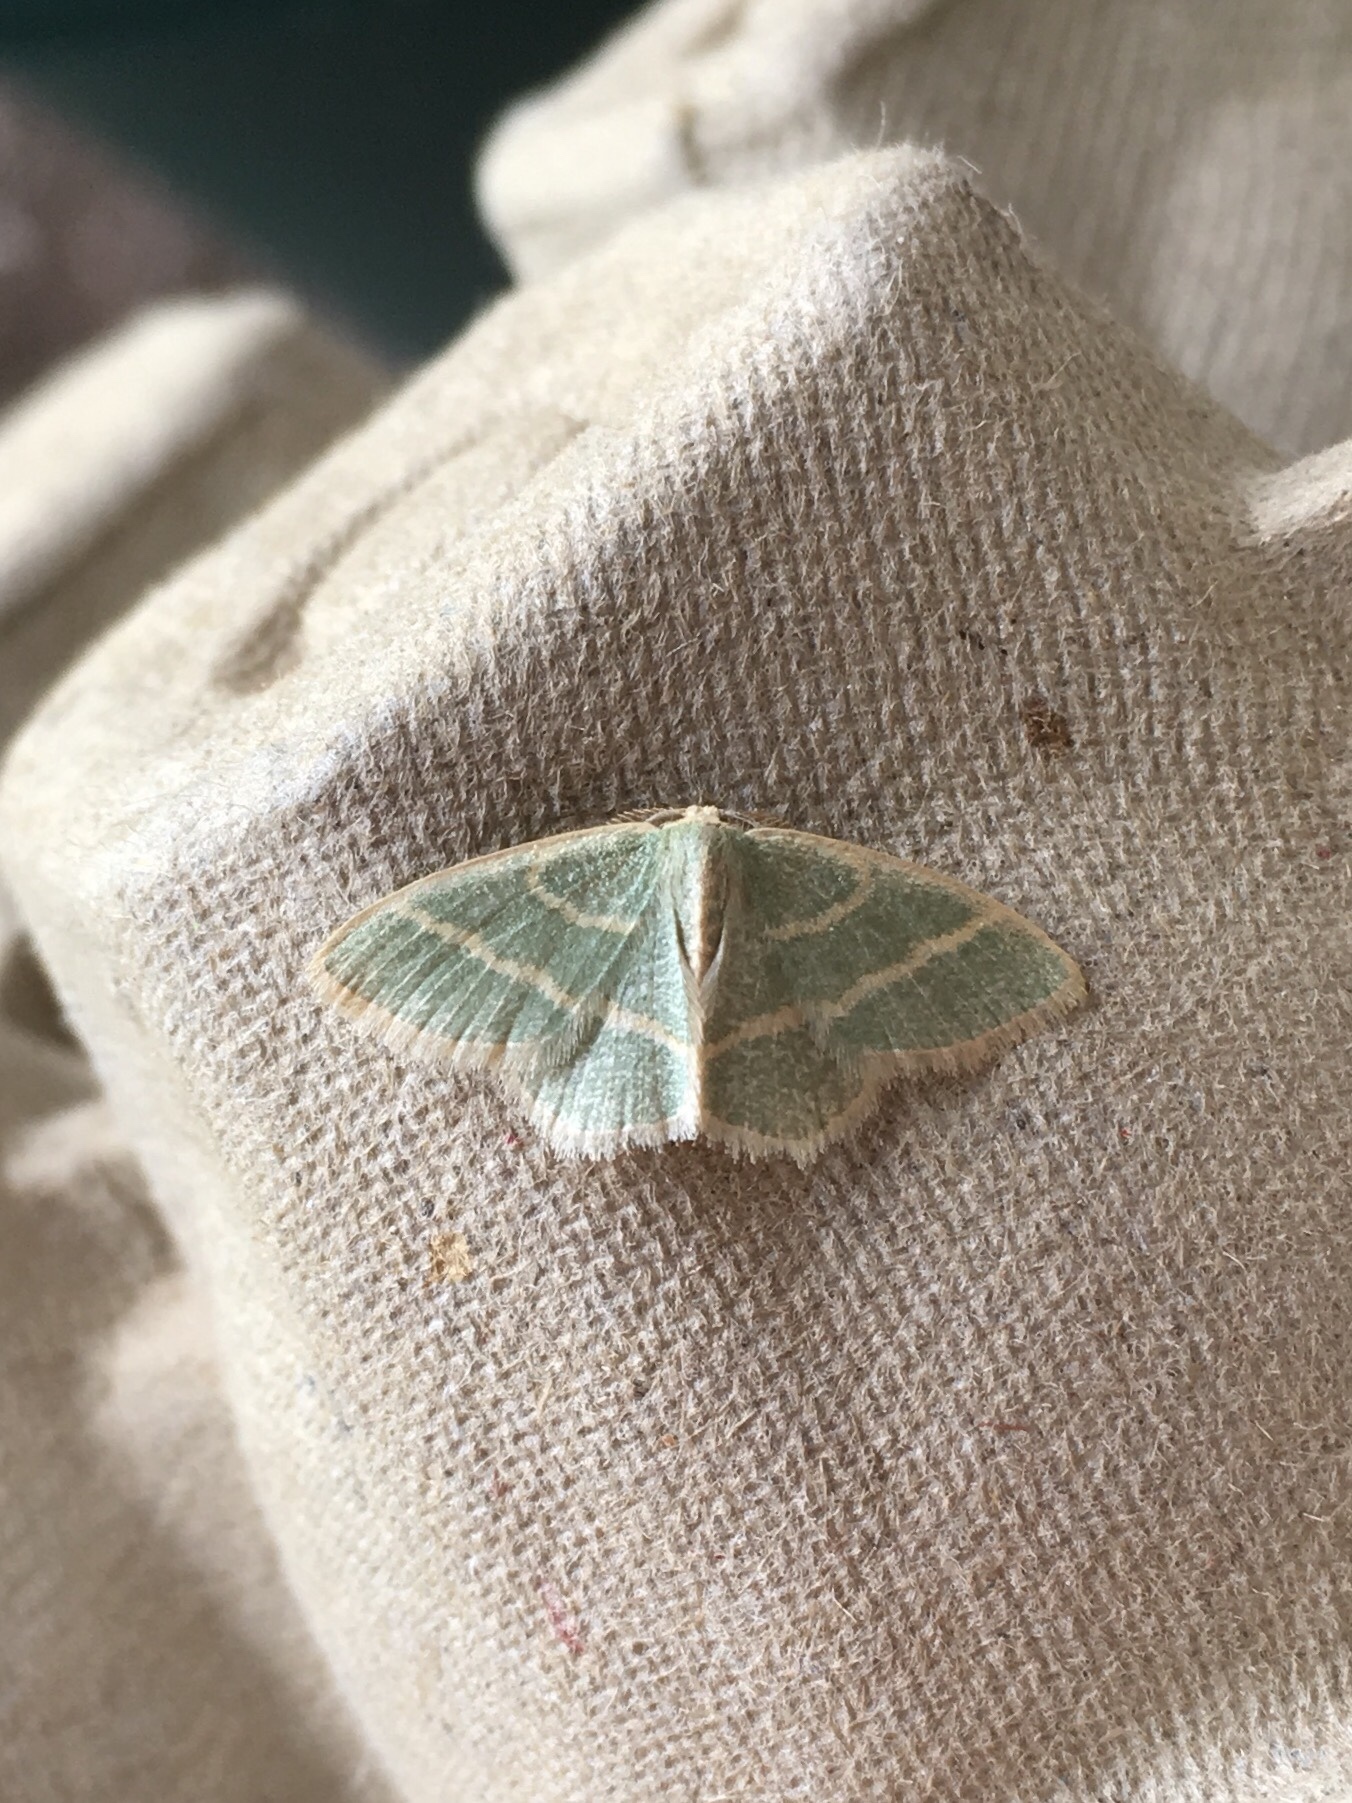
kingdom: Animalia
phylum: Arthropoda
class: Insecta
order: Lepidoptera
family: Geometridae
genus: Chlorochlamys
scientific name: Chlorochlamys chloroleucaria
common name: Blackberry looper
